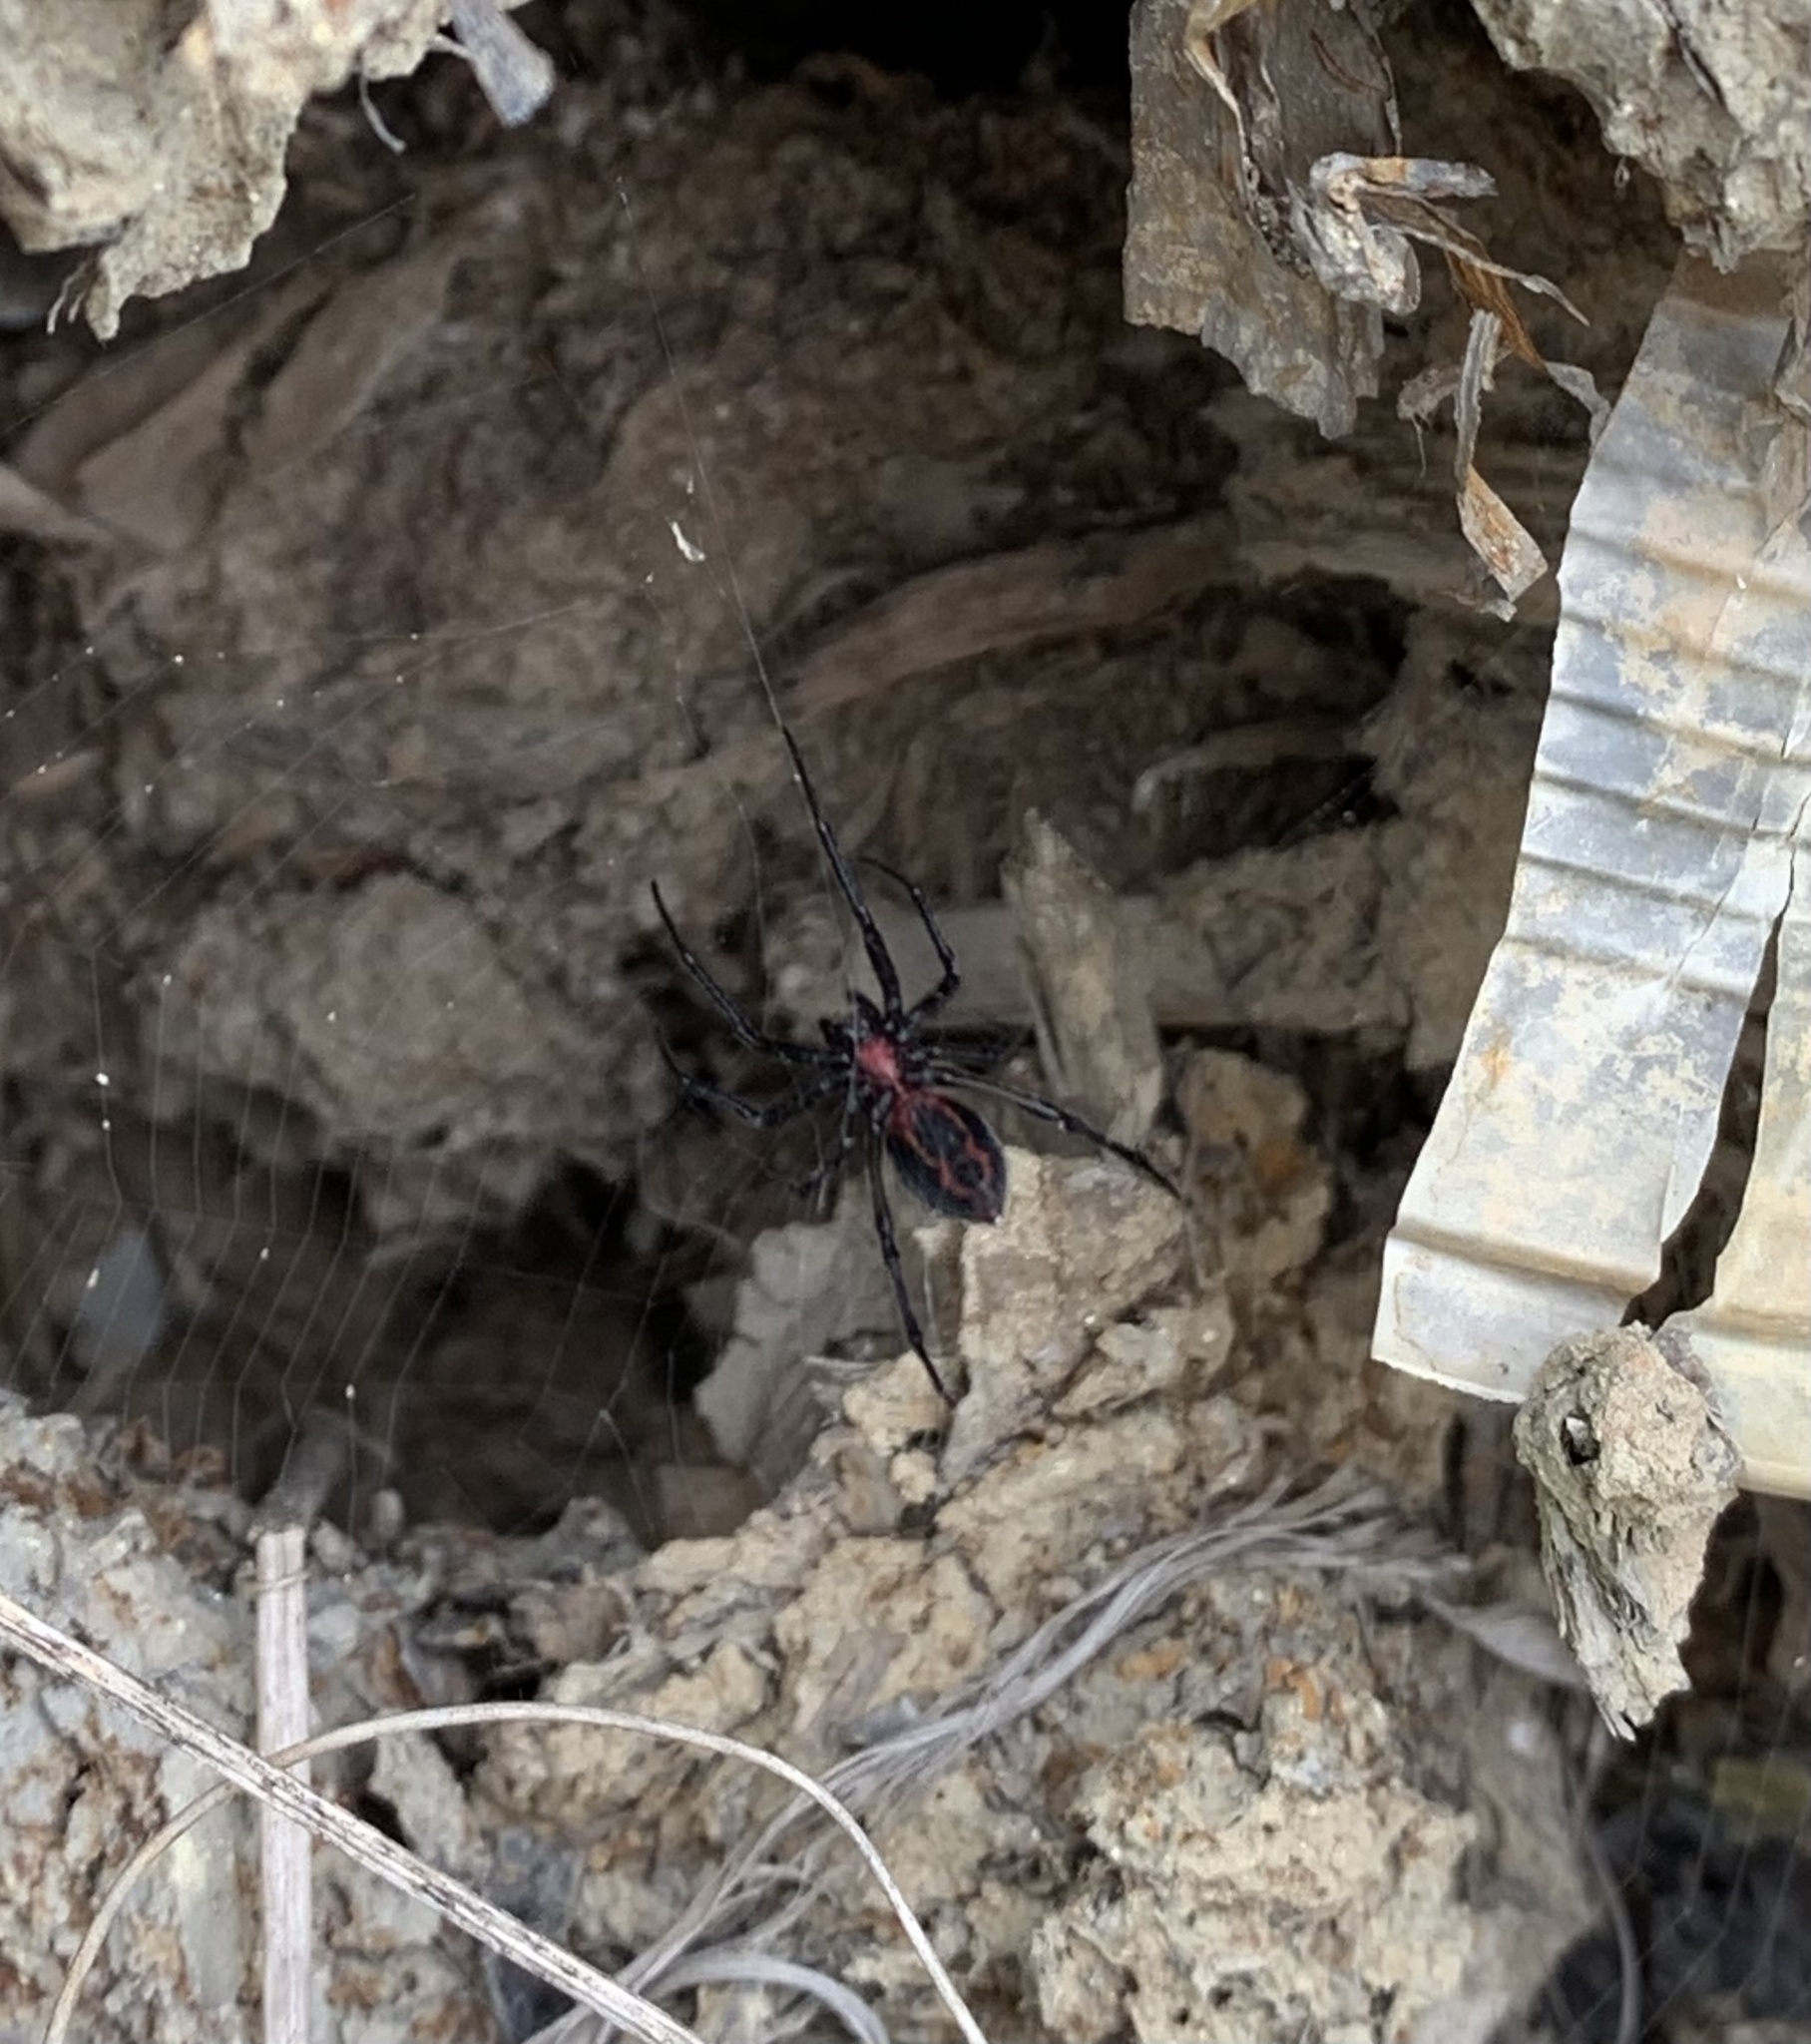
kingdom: Animalia
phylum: Arthropoda
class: Arachnida
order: Araneae
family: Araneidae
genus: Alpaida
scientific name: Alpaida carminea
